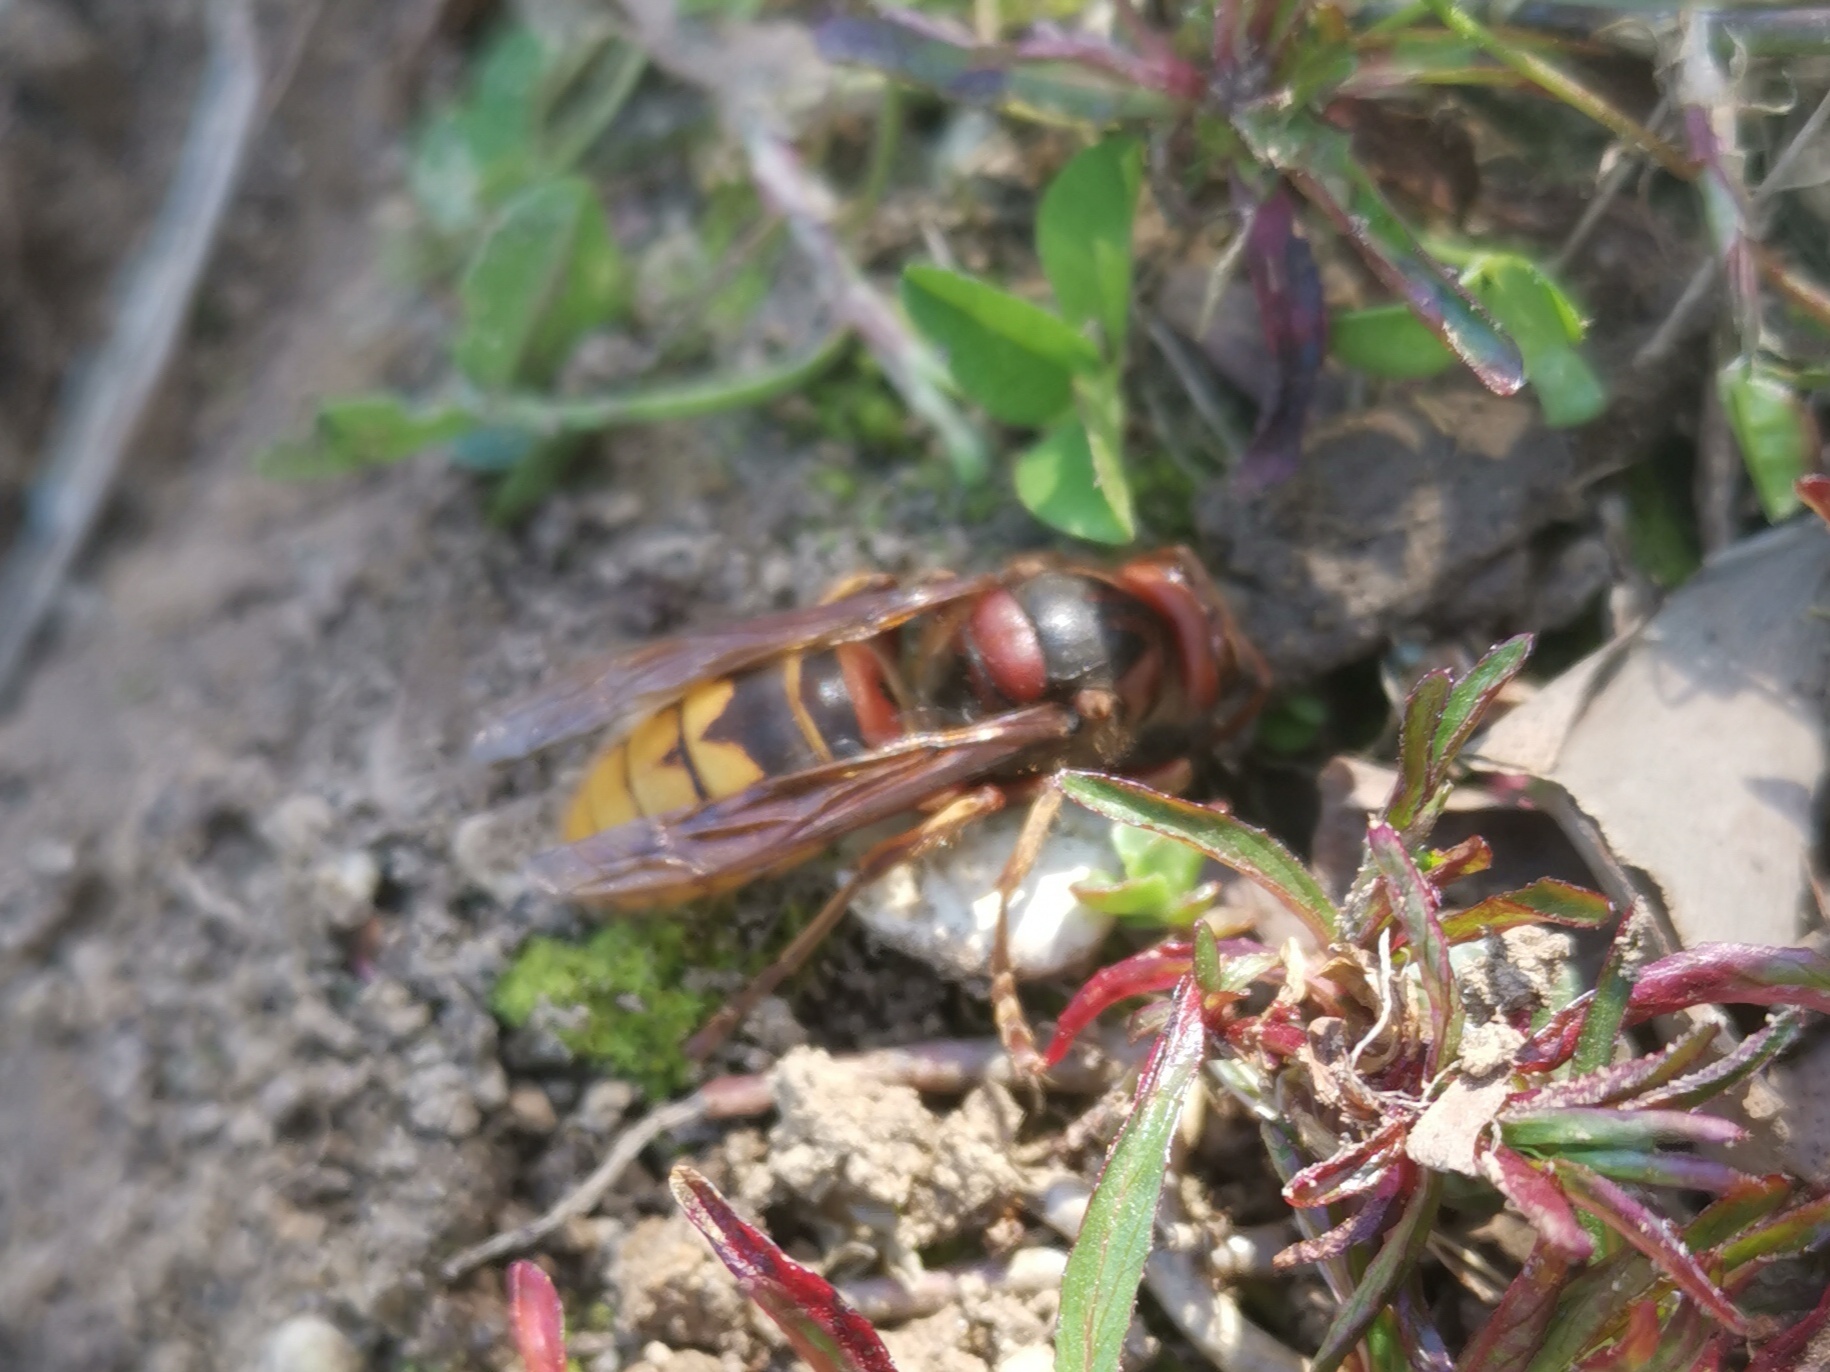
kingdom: Animalia
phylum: Arthropoda
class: Insecta
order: Hymenoptera
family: Vespidae
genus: Vespa
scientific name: Vespa crabro
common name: Hornet
